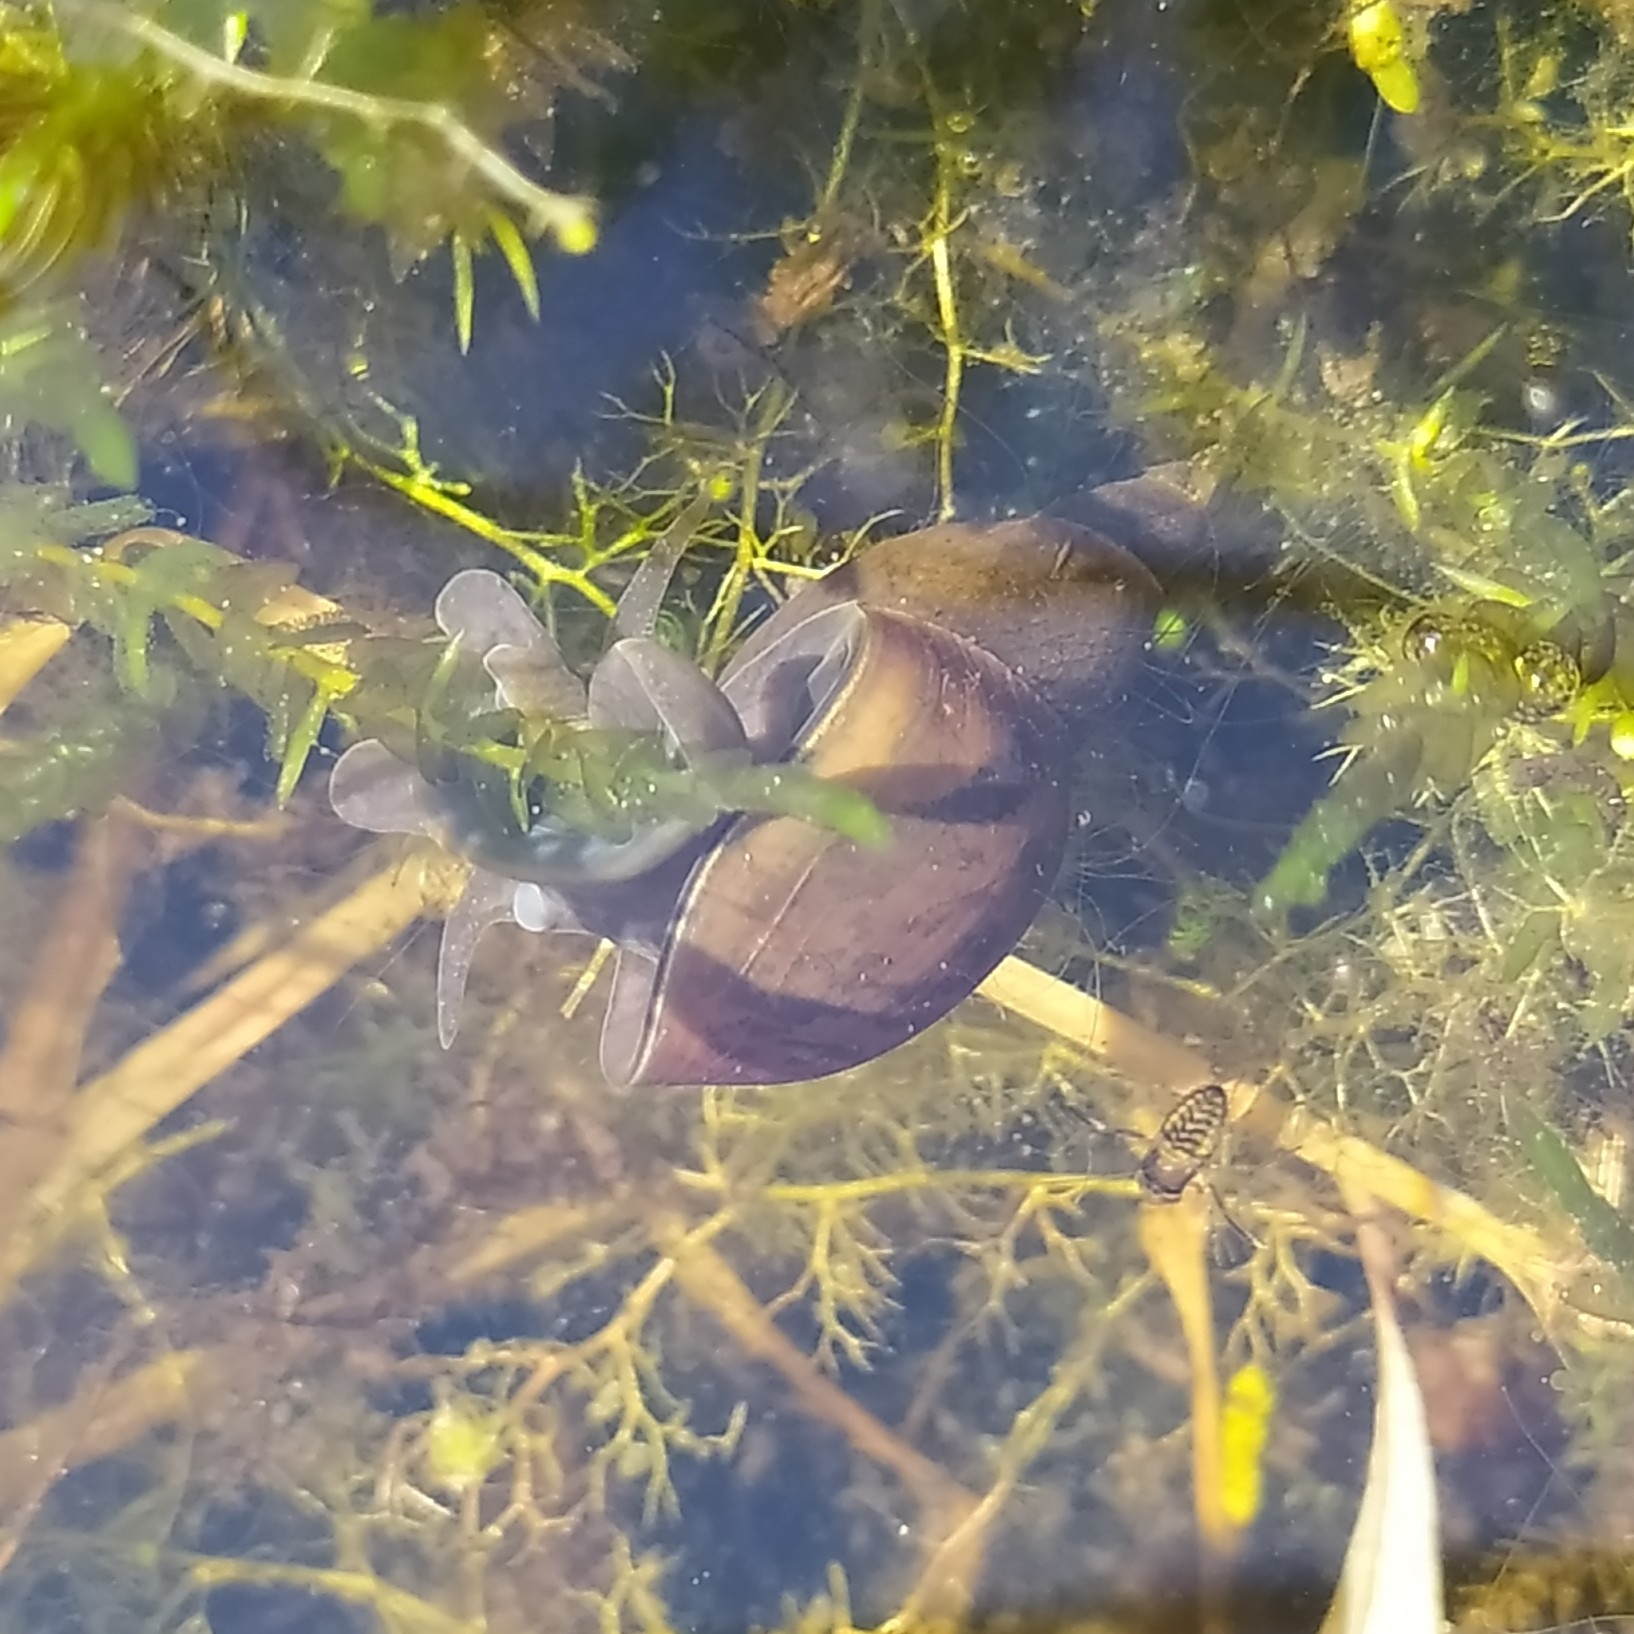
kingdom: Animalia
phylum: Mollusca
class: Gastropoda
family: Lymnaeidae
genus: Lymnaea
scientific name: Lymnaea stagnalis
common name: Great pond snail
